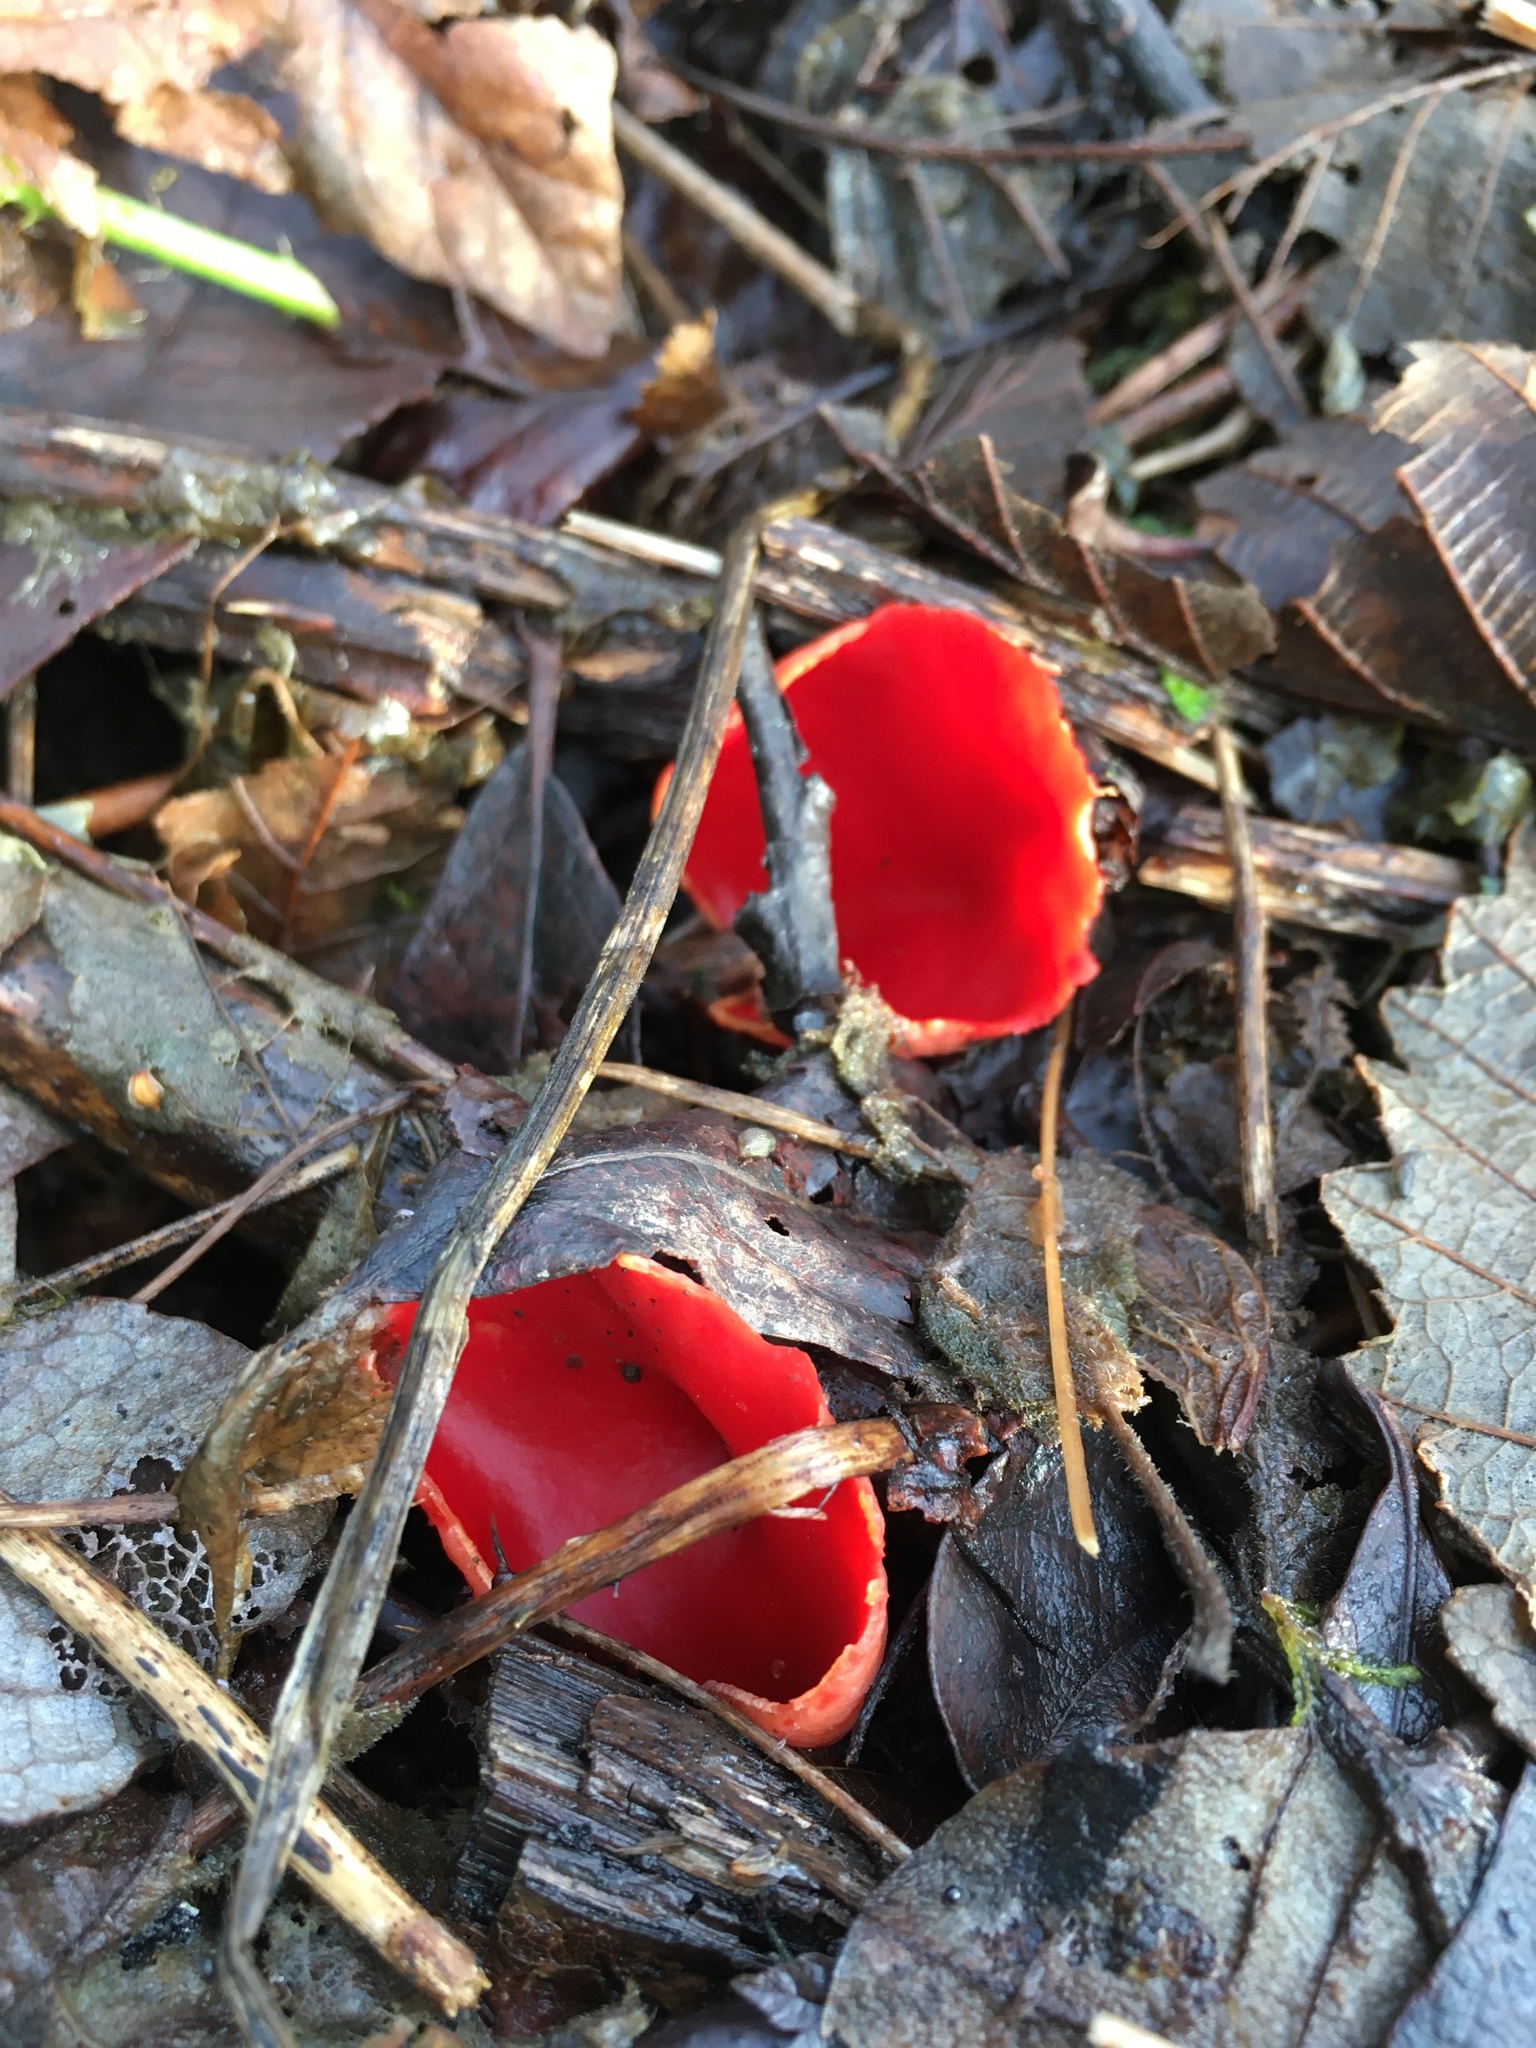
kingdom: Fungi
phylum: Ascomycota
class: Pezizomycetes
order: Pezizales
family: Sarcoscyphaceae
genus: Sarcoscypha
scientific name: Sarcoscypha coccinea
